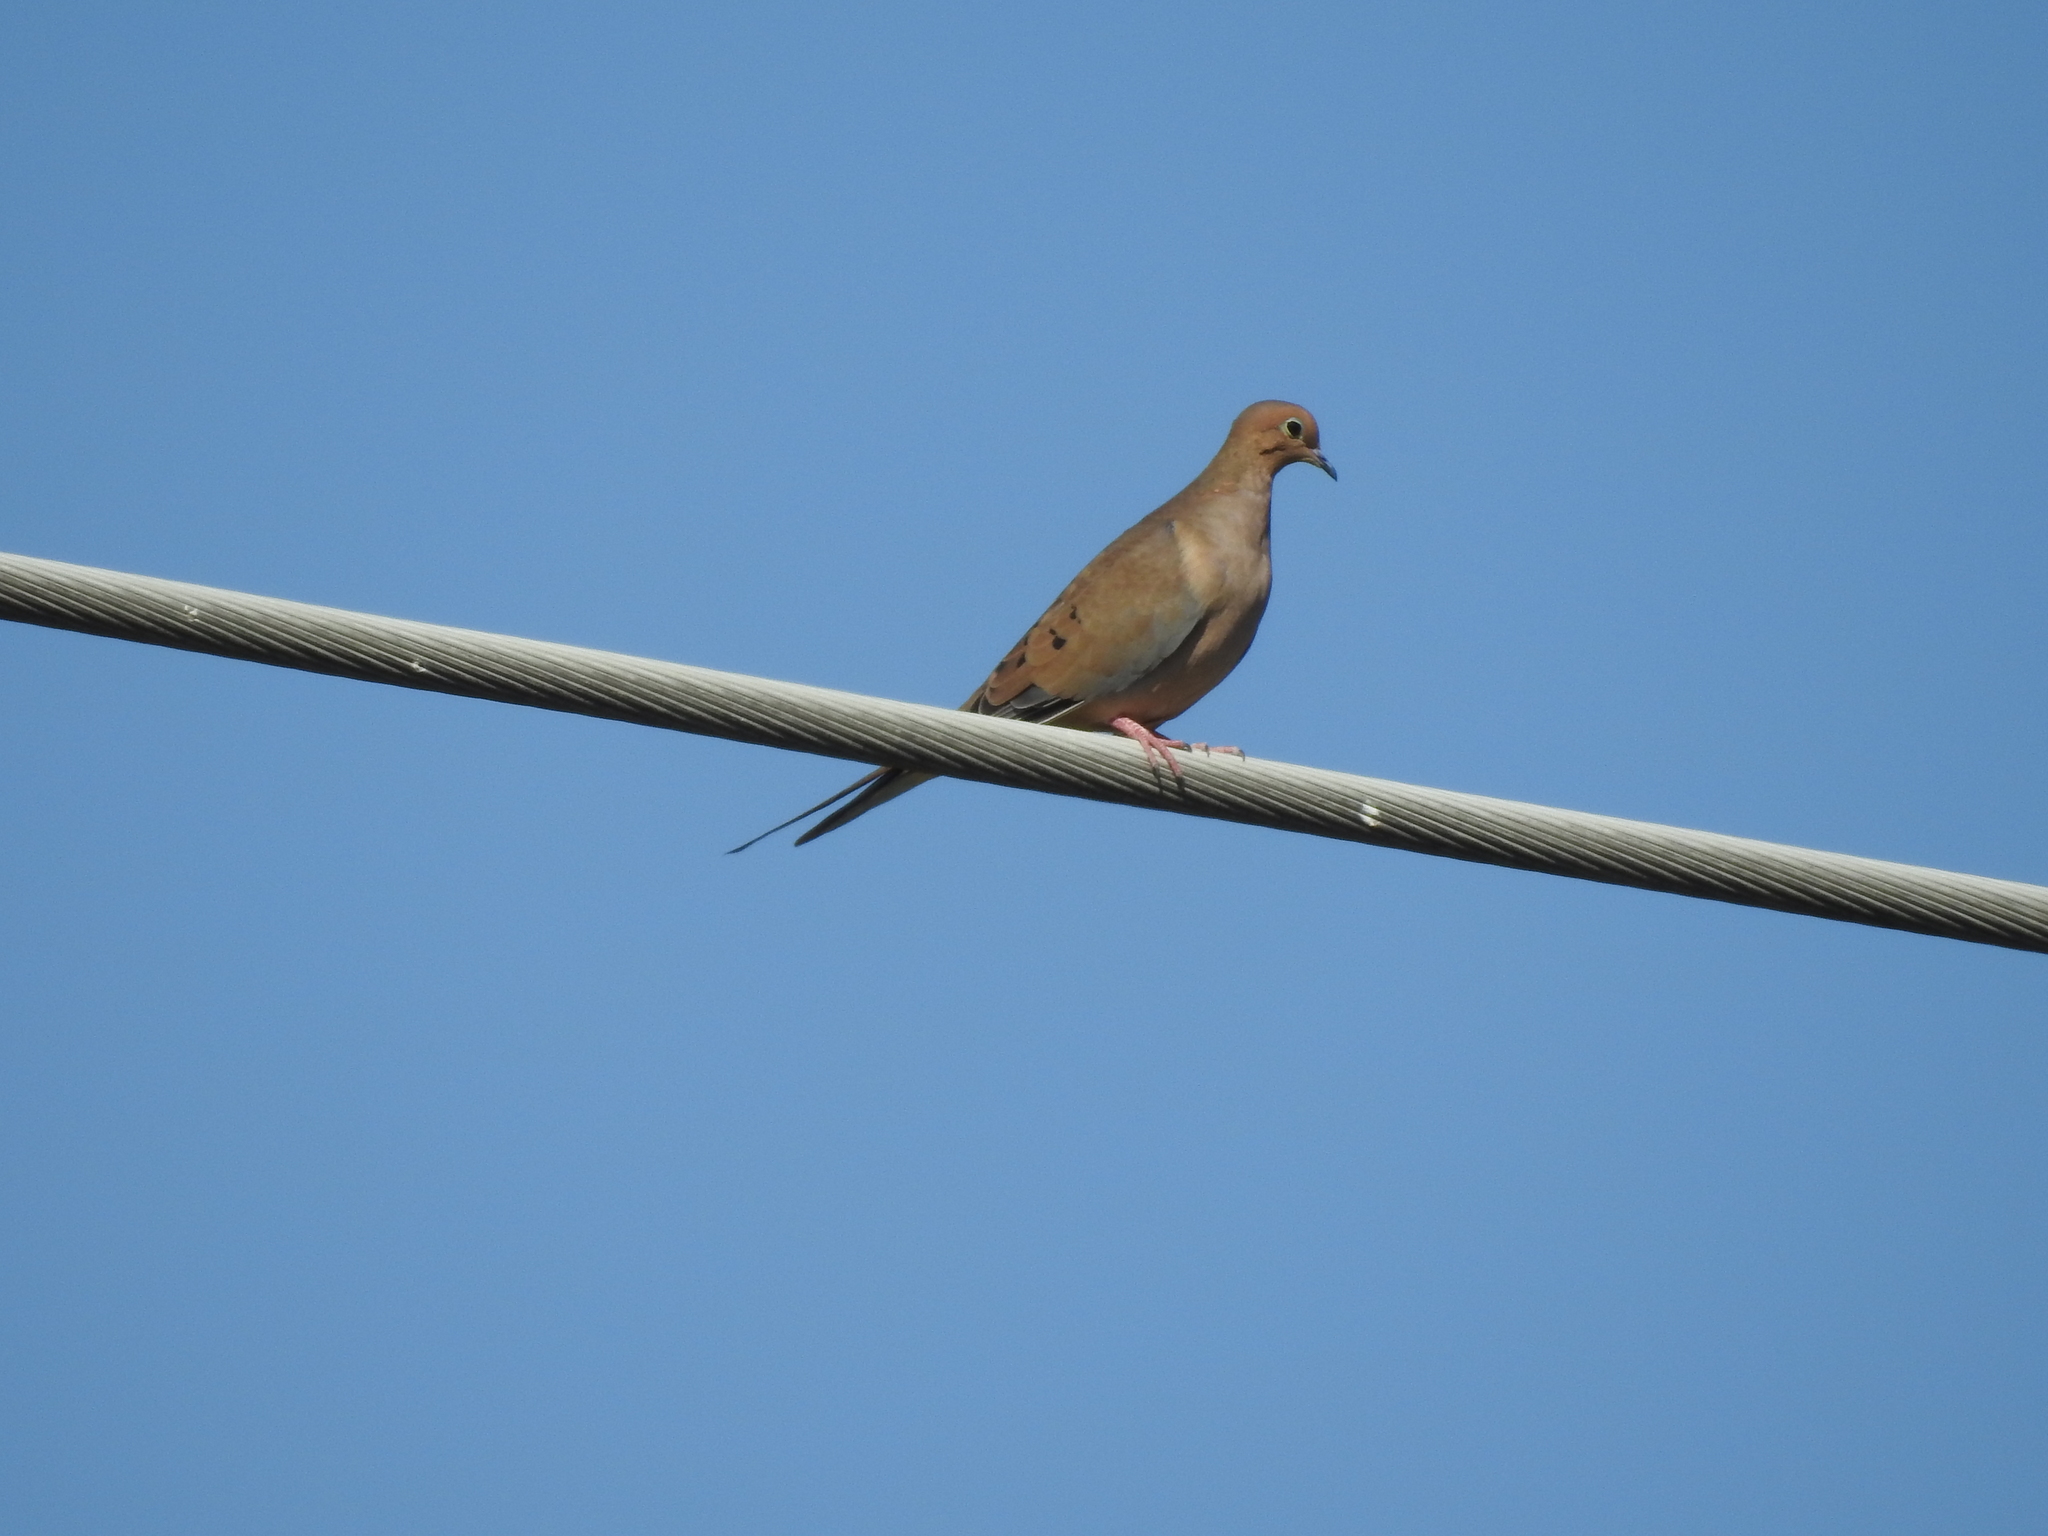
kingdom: Animalia
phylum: Chordata
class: Aves
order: Columbiformes
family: Columbidae
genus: Zenaida
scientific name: Zenaida macroura
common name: Mourning dove
